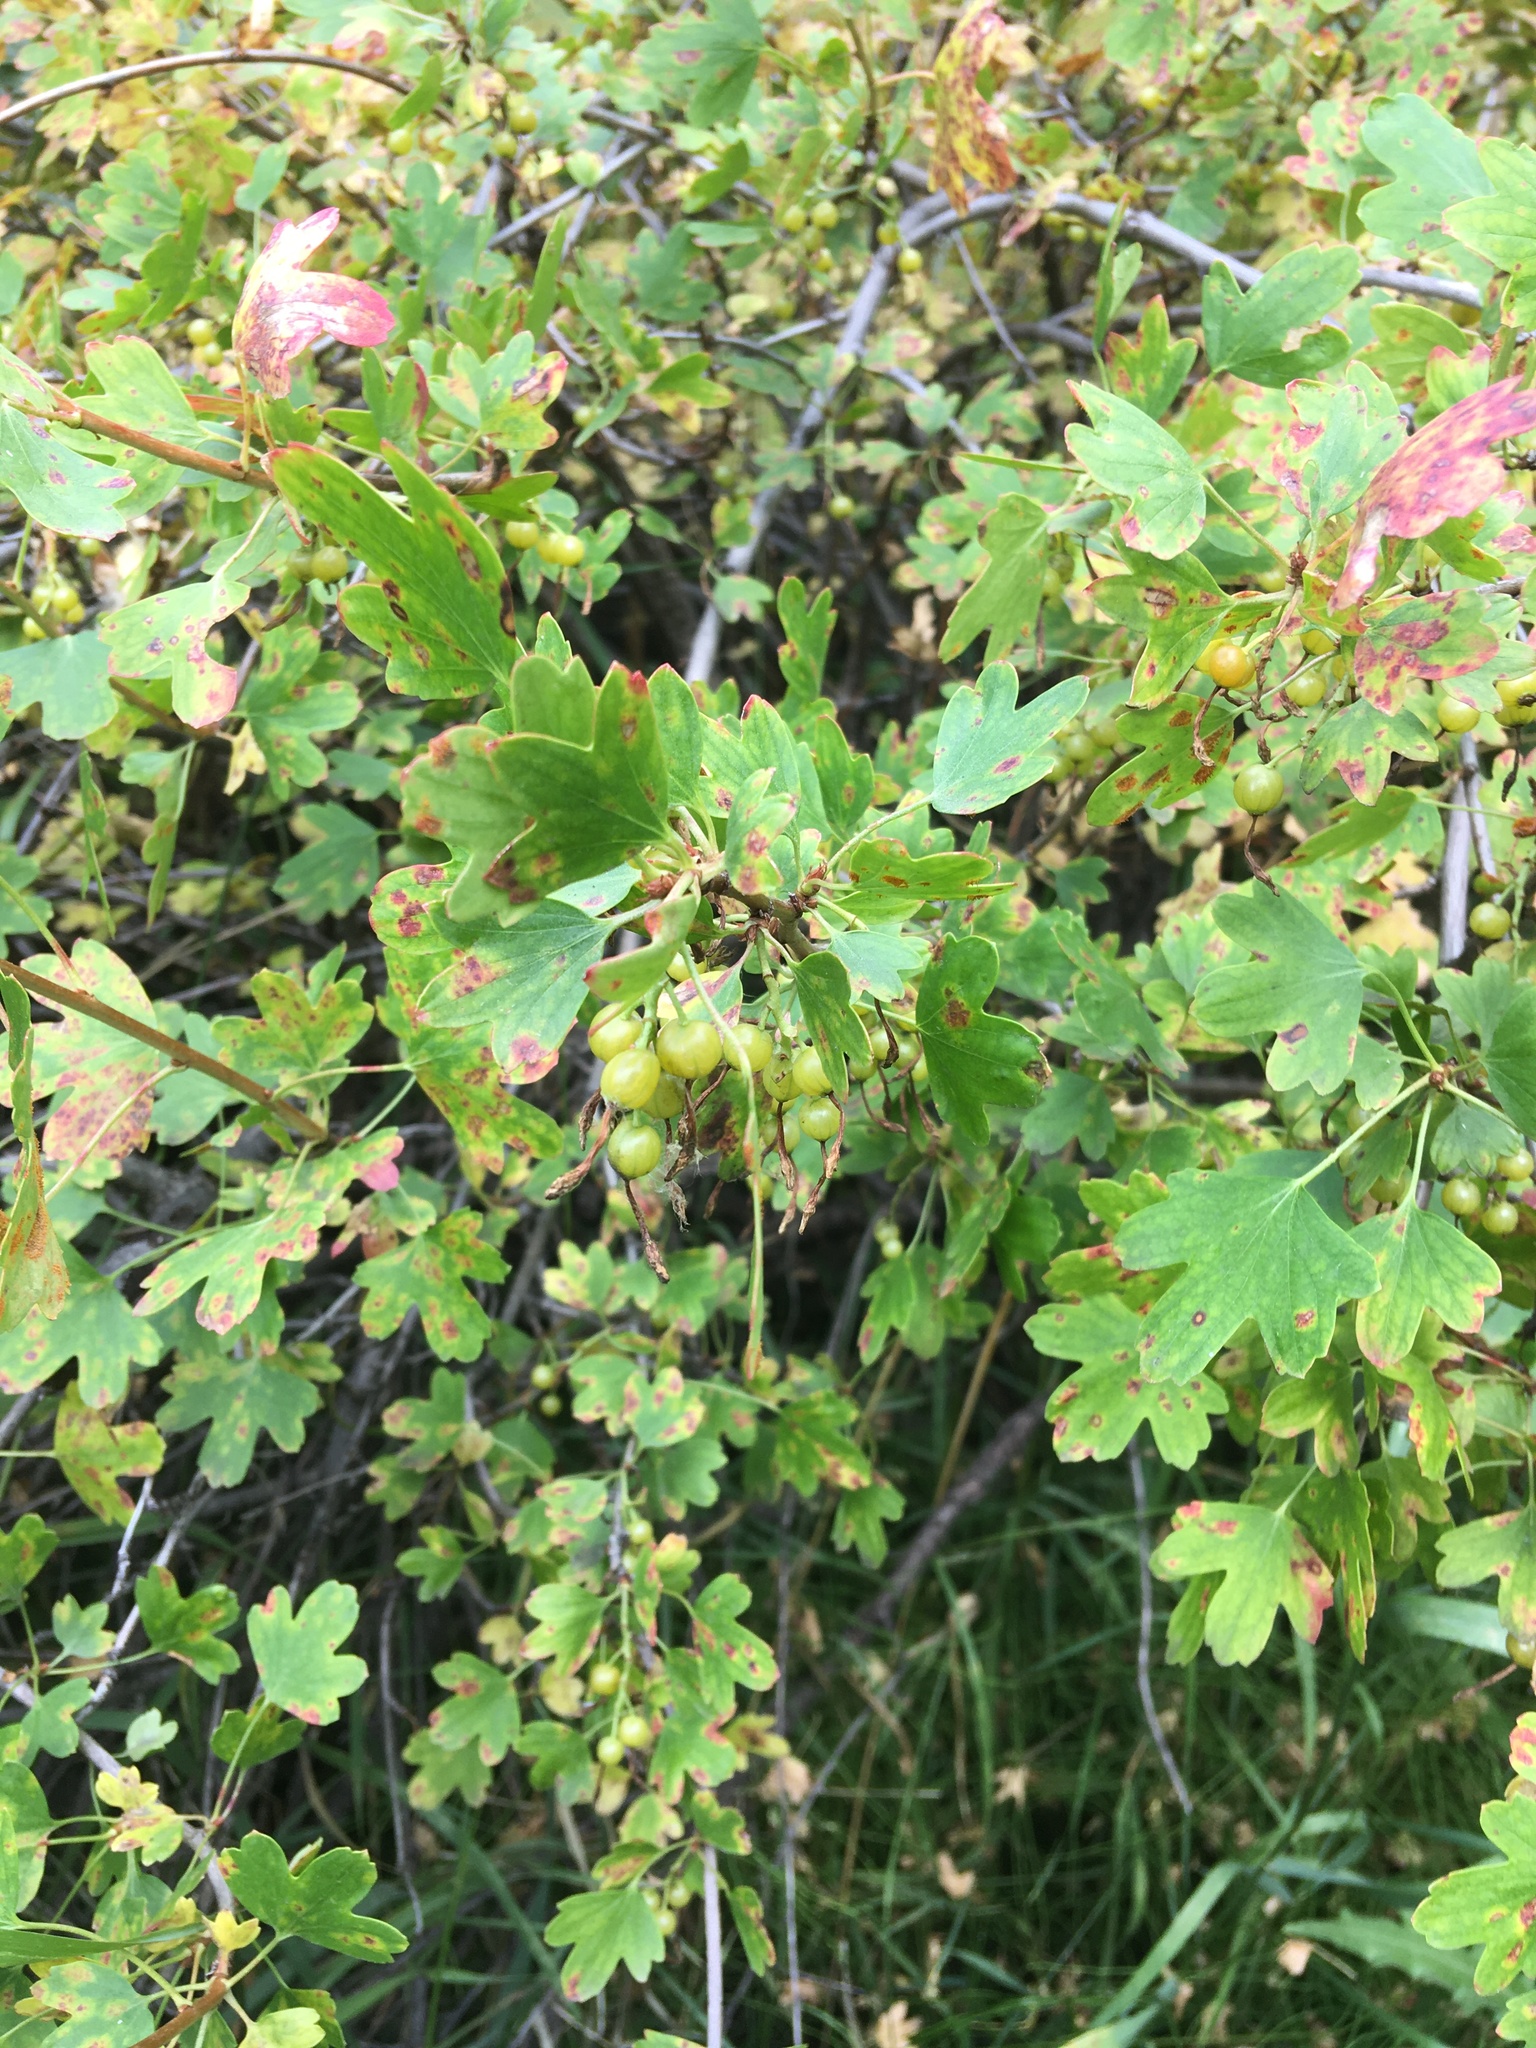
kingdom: Plantae
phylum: Tracheophyta
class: Magnoliopsida
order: Saxifragales
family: Grossulariaceae
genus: Ribes
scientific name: Ribes aureum
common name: Golden currant
